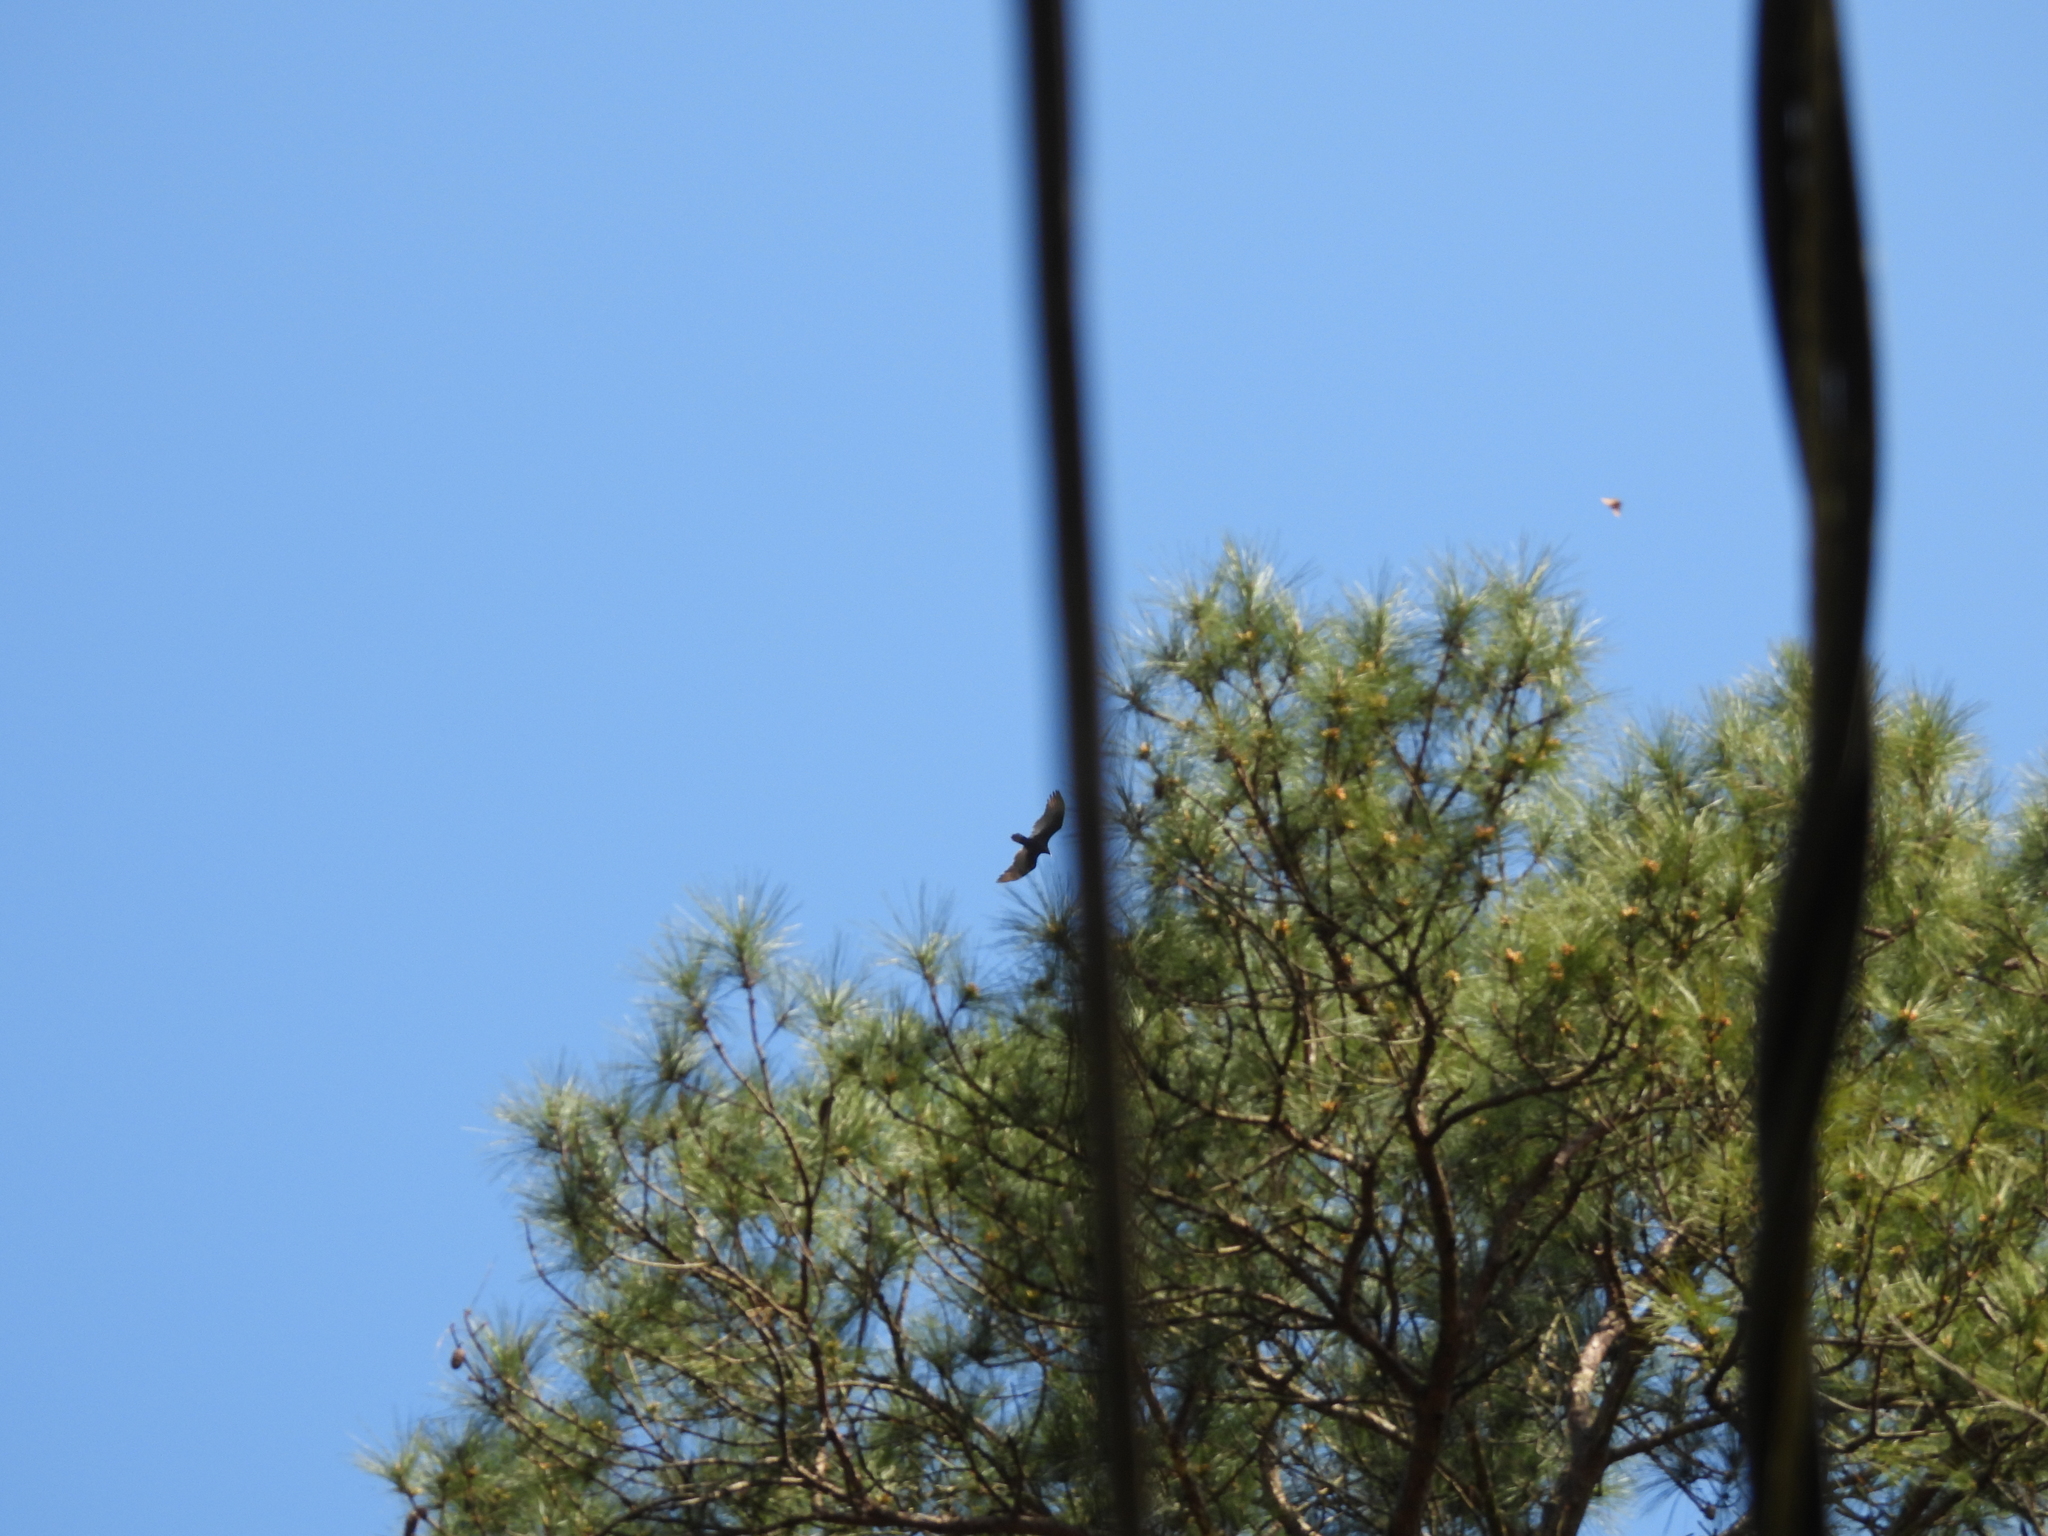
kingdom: Animalia
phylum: Chordata
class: Aves
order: Accipitriformes
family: Cathartidae
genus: Cathartes
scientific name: Cathartes aura
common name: Turkey vulture
